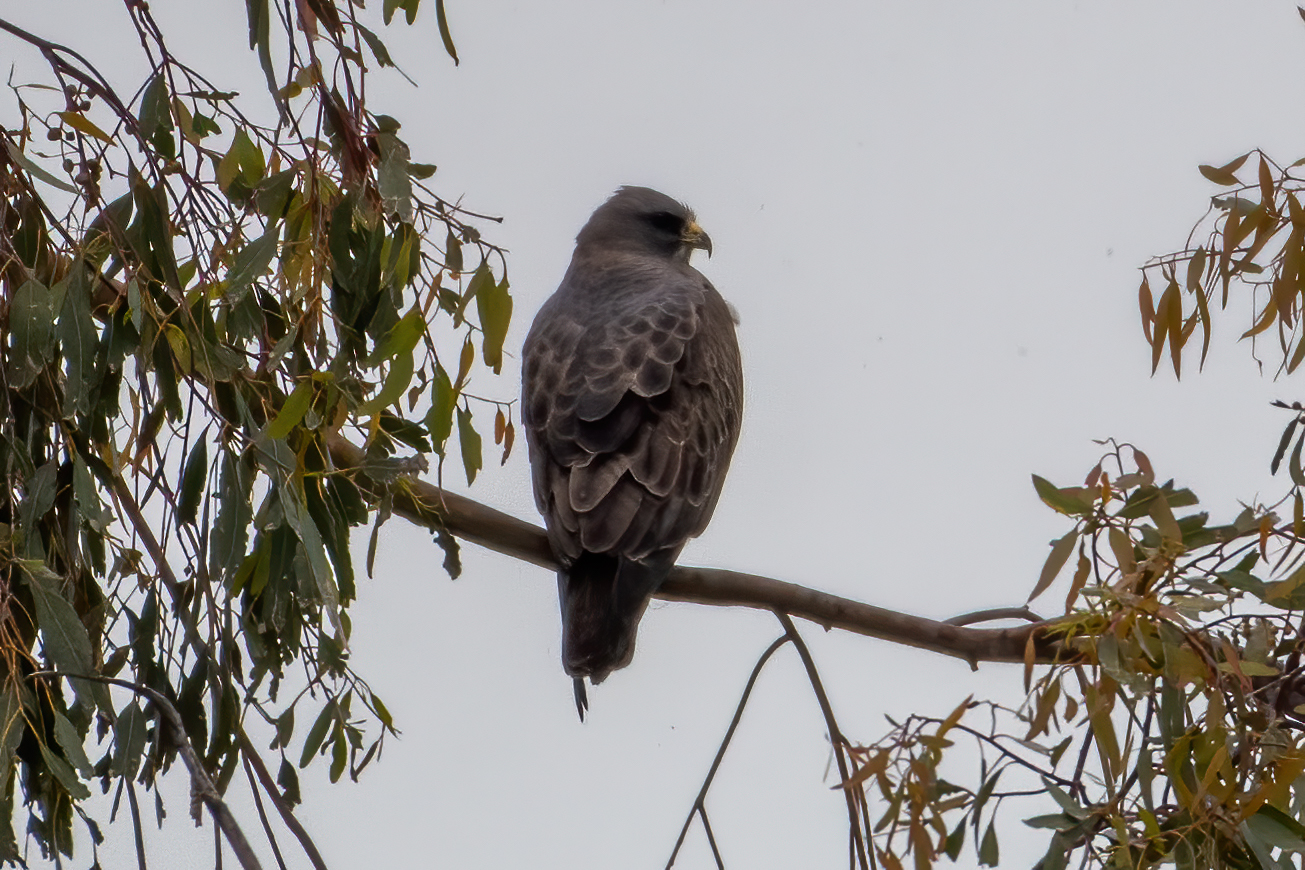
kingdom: Animalia
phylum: Chordata
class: Aves
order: Accipitriformes
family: Accipitridae
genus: Buteo
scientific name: Buteo swainsoni
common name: Swainson's hawk
